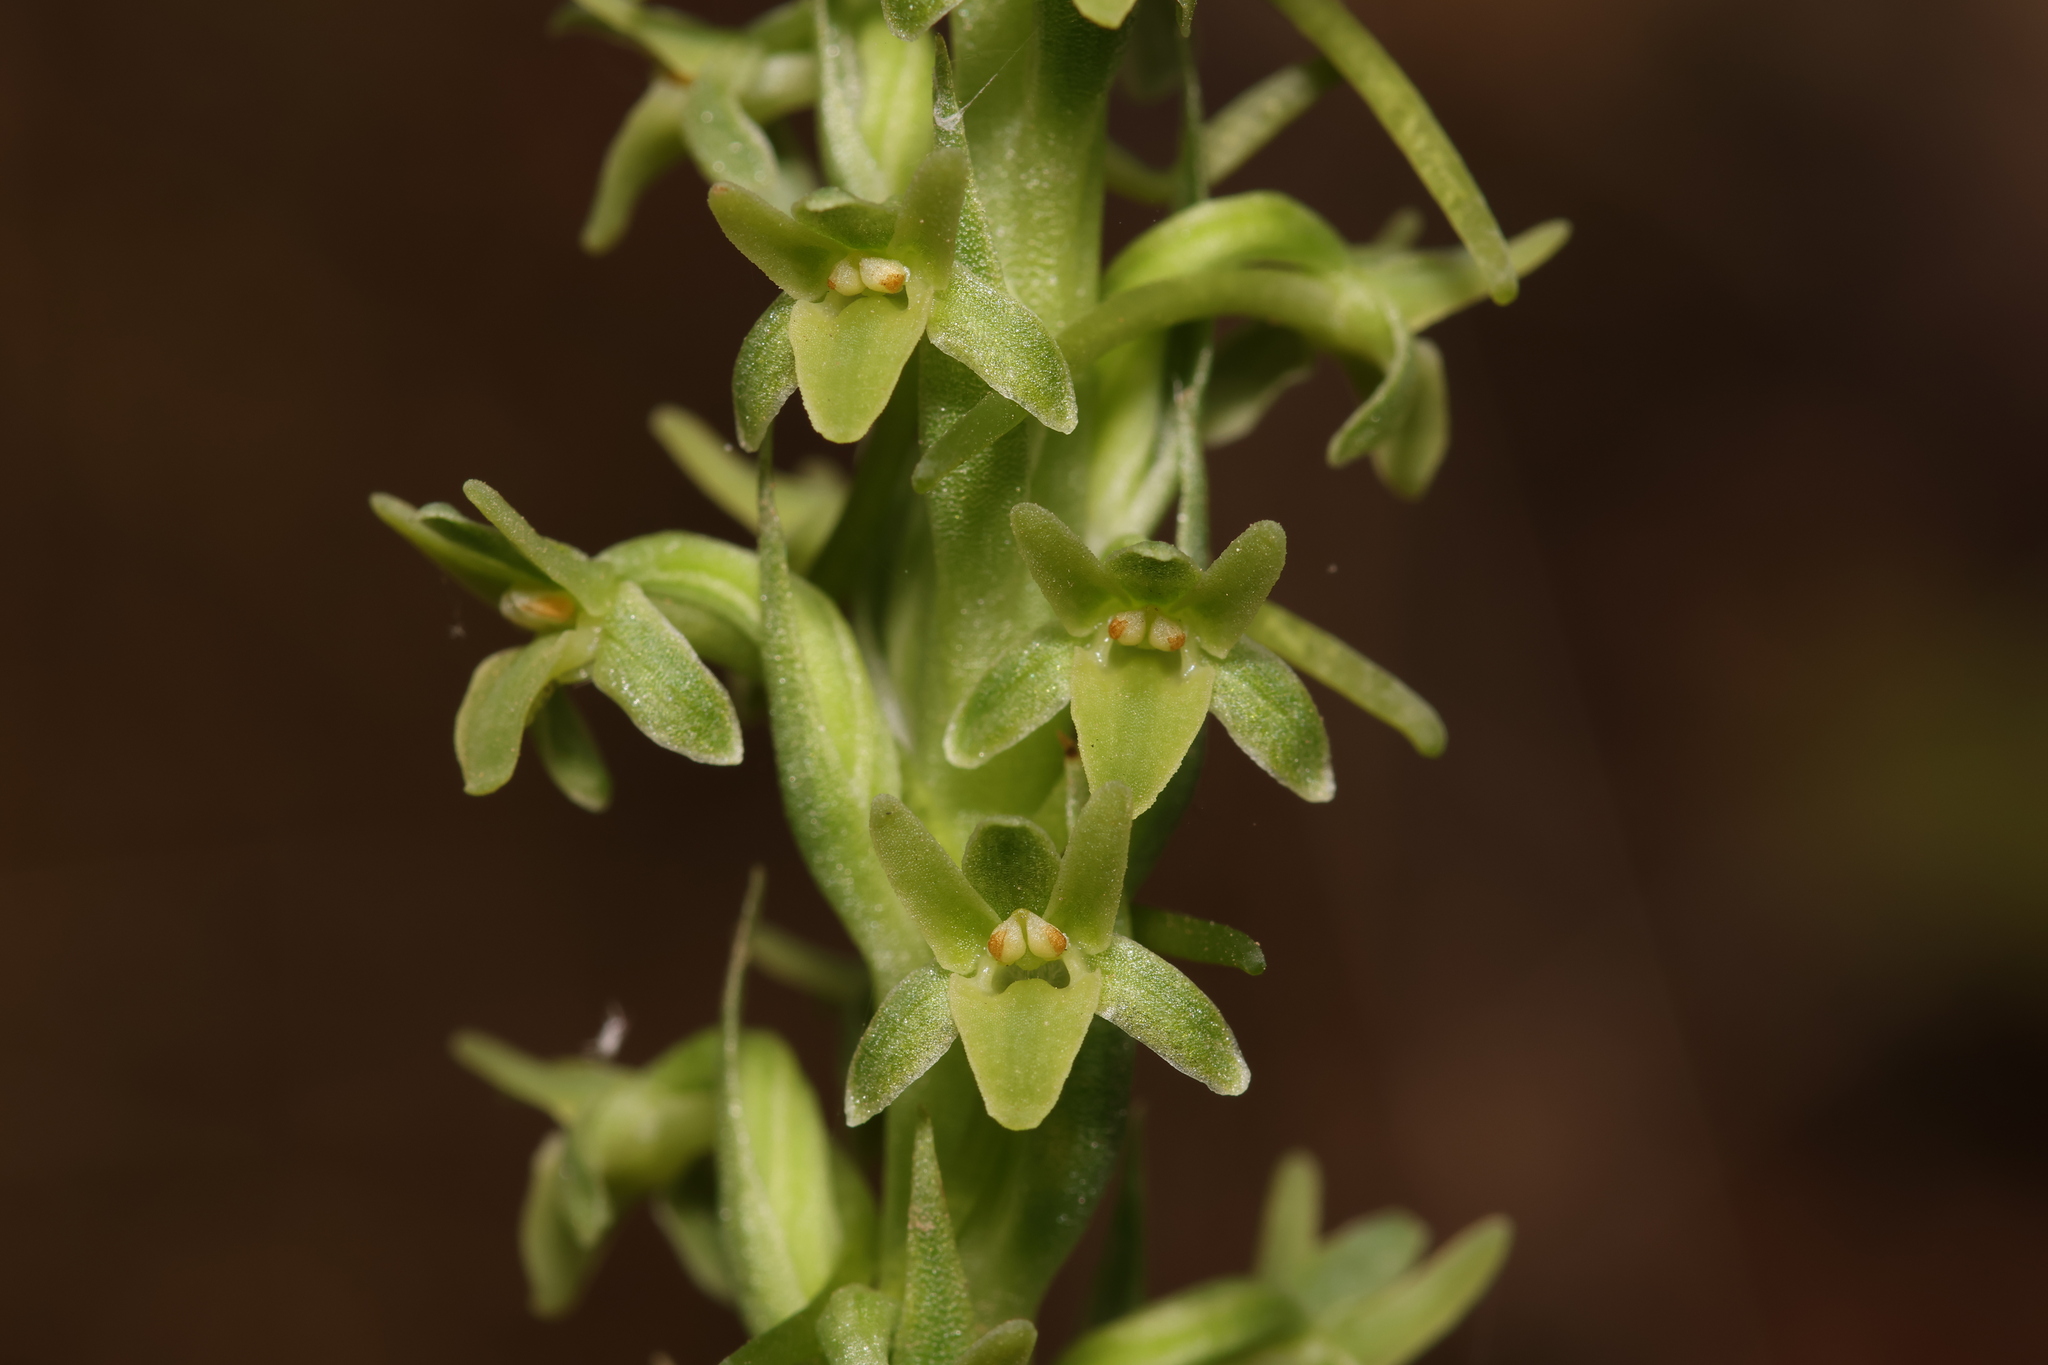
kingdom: Plantae
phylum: Tracheophyta
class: Liliopsida
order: Asparagales
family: Orchidaceae
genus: Platanthera
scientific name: Platanthera michaelii
